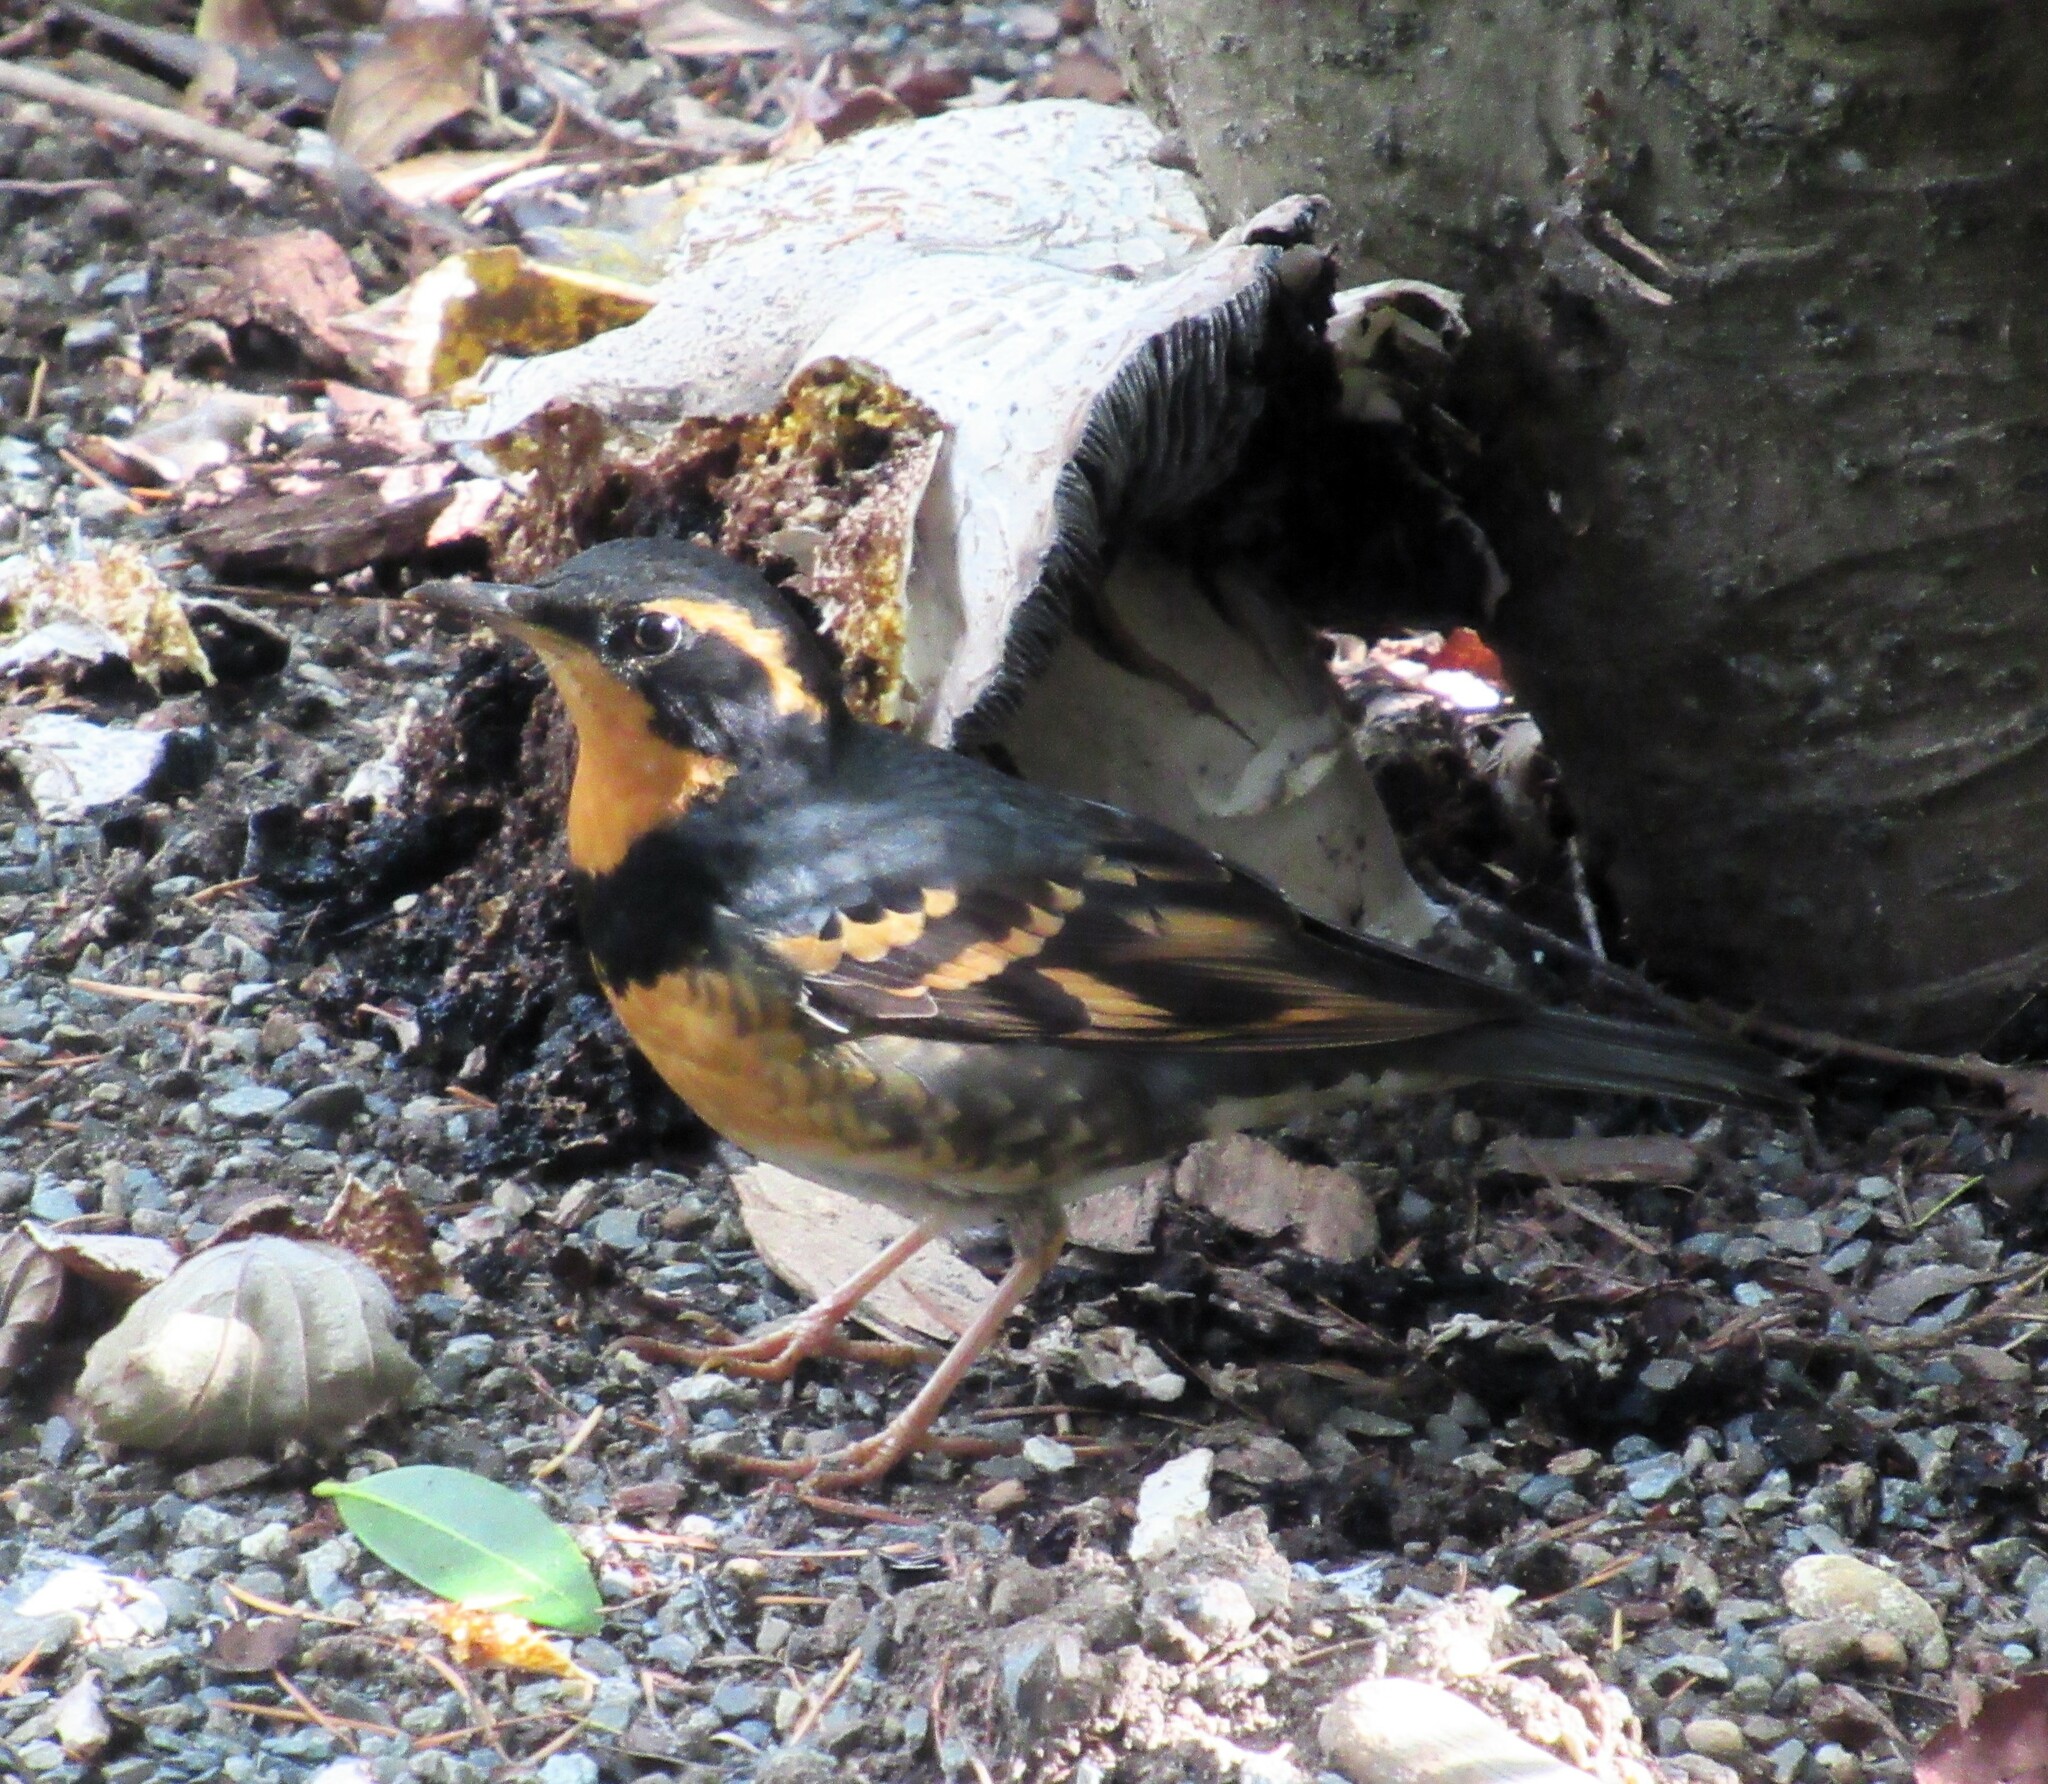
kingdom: Animalia
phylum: Chordata
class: Aves
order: Passeriformes
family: Turdidae
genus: Ixoreus
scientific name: Ixoreus naevius
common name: Varied thrush
